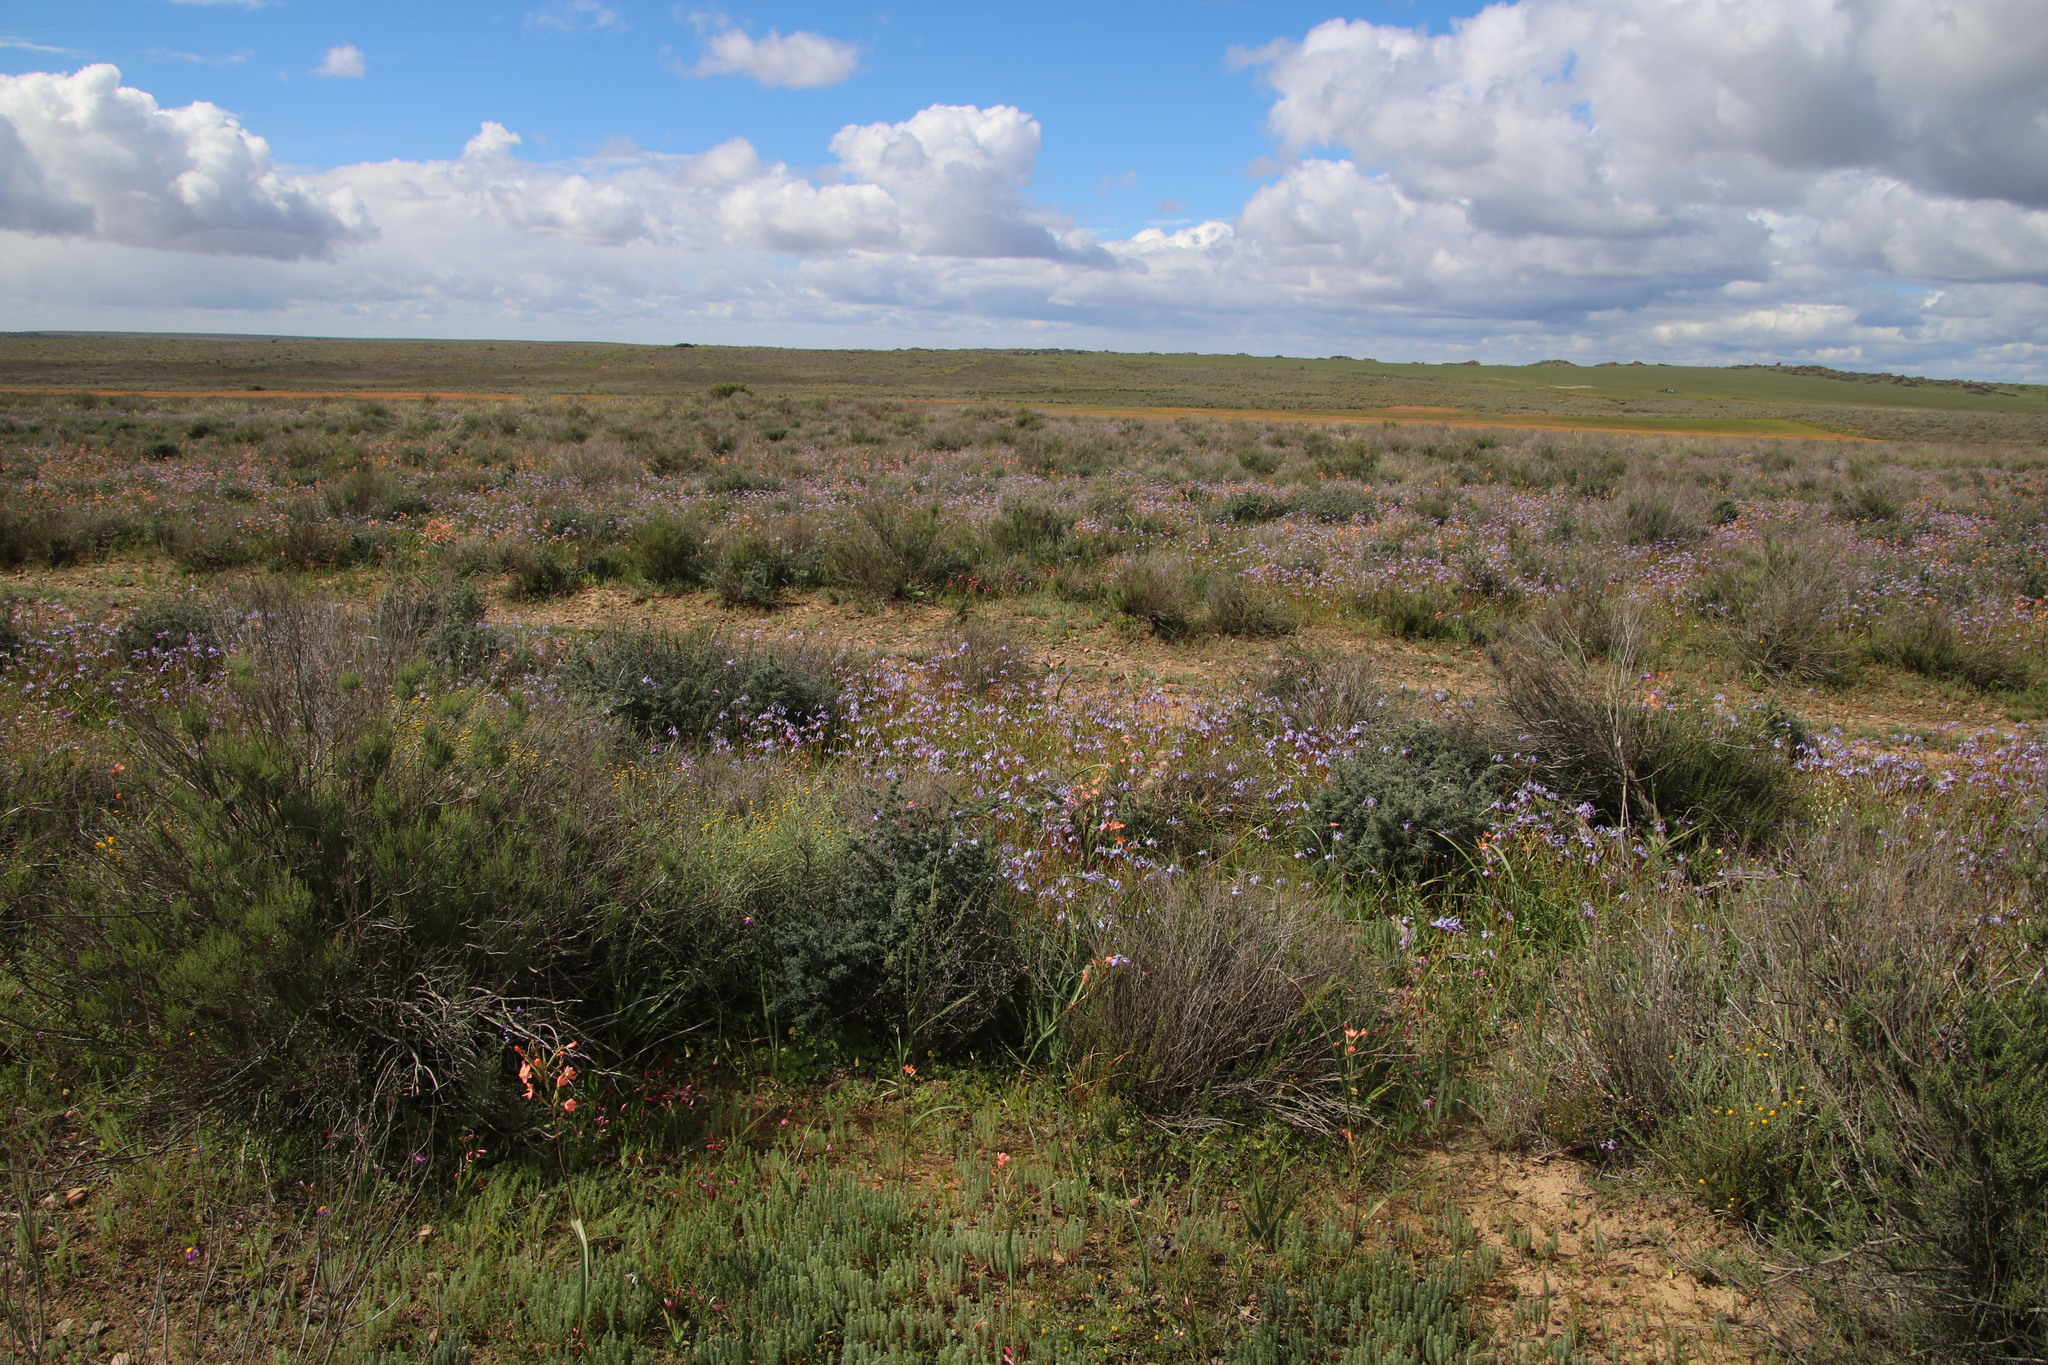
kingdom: Plantae
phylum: Tracheophyta
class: Liliopsida
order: Asparagales
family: Iridaceae
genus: Moraea
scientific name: Moraea tripetala
